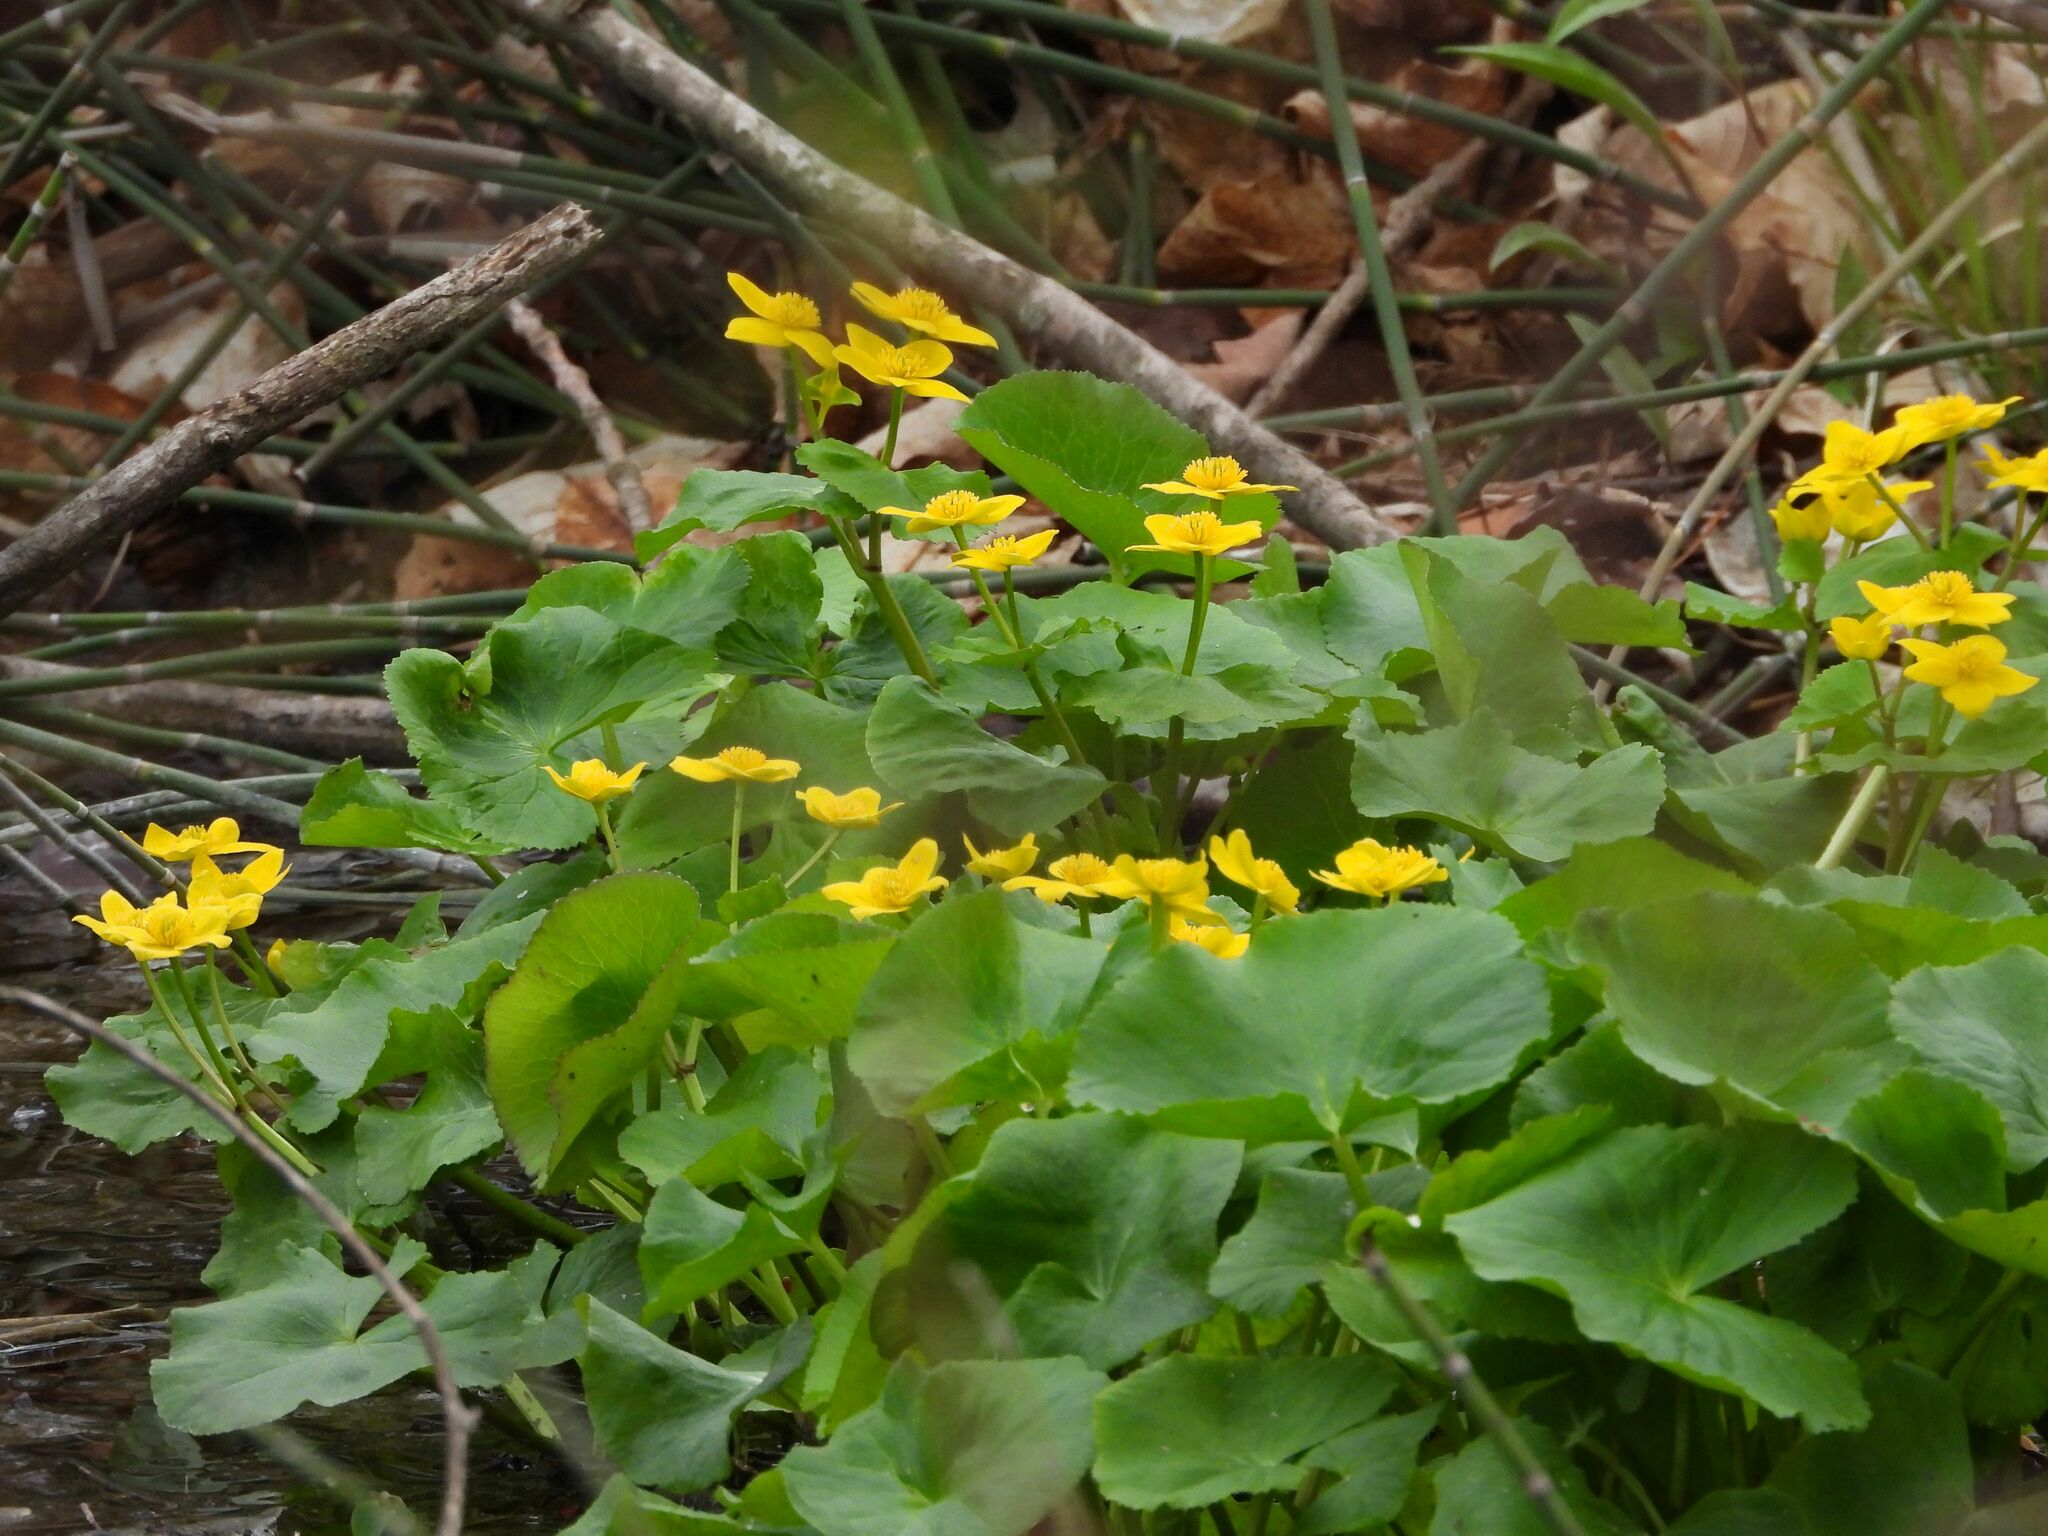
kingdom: Plantae
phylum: Tracheophyta
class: Magnoliopsida
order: Ranunculales
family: Ranunculaceae
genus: Caltha
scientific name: Caltha palustris
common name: Marsh marigold
